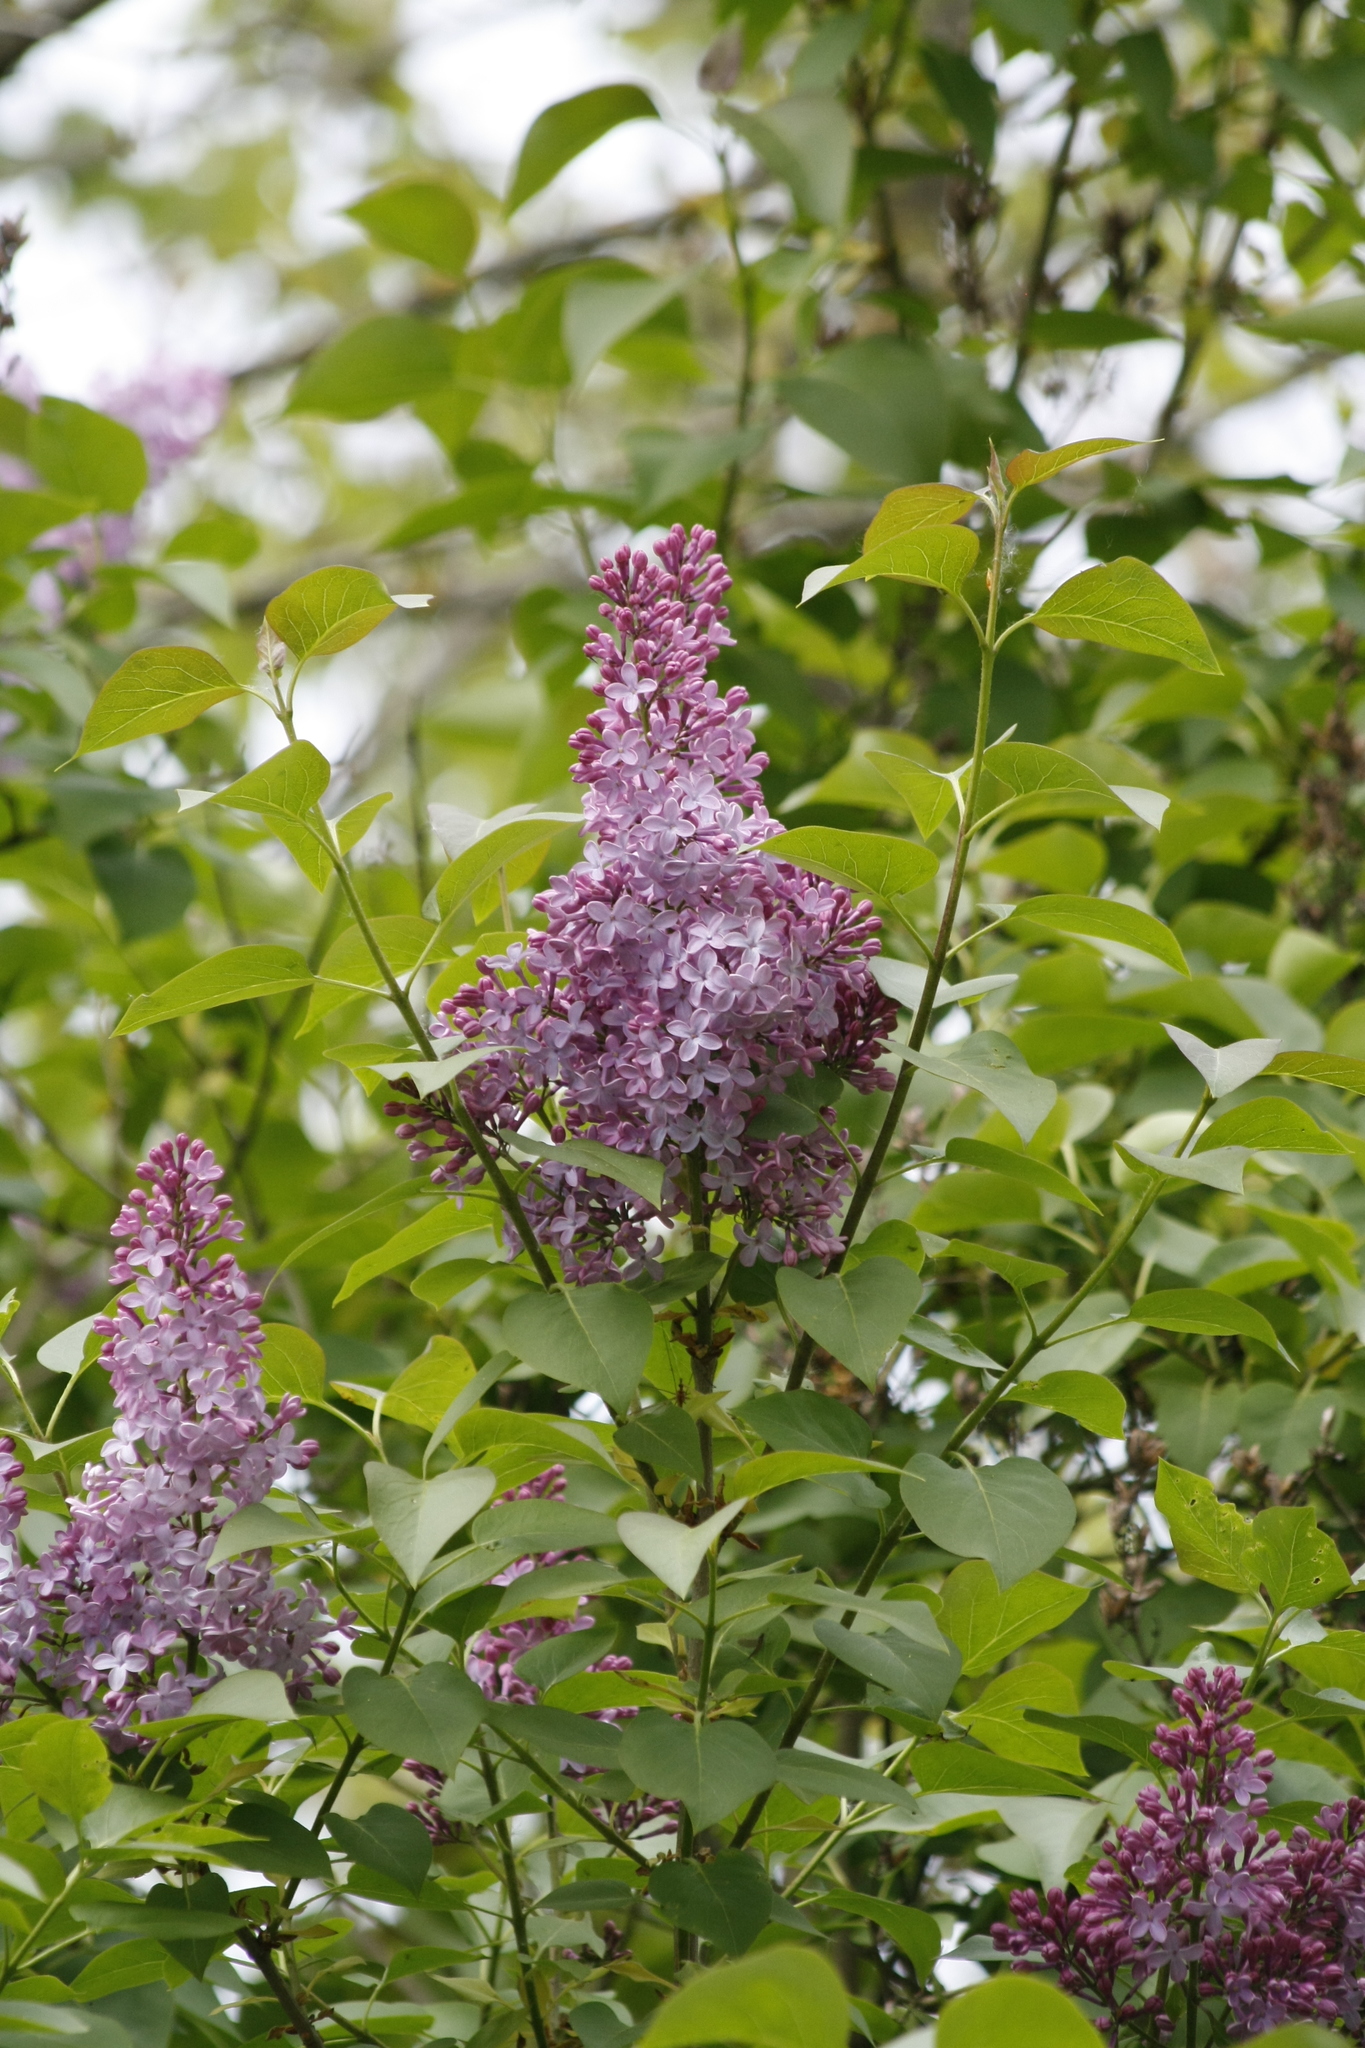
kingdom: Plantae
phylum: Tracheophyta
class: Magnoliopsida
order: Lamiales
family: Oleaceae
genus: Syringa
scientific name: Syringa vulgaris
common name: Common lilac
